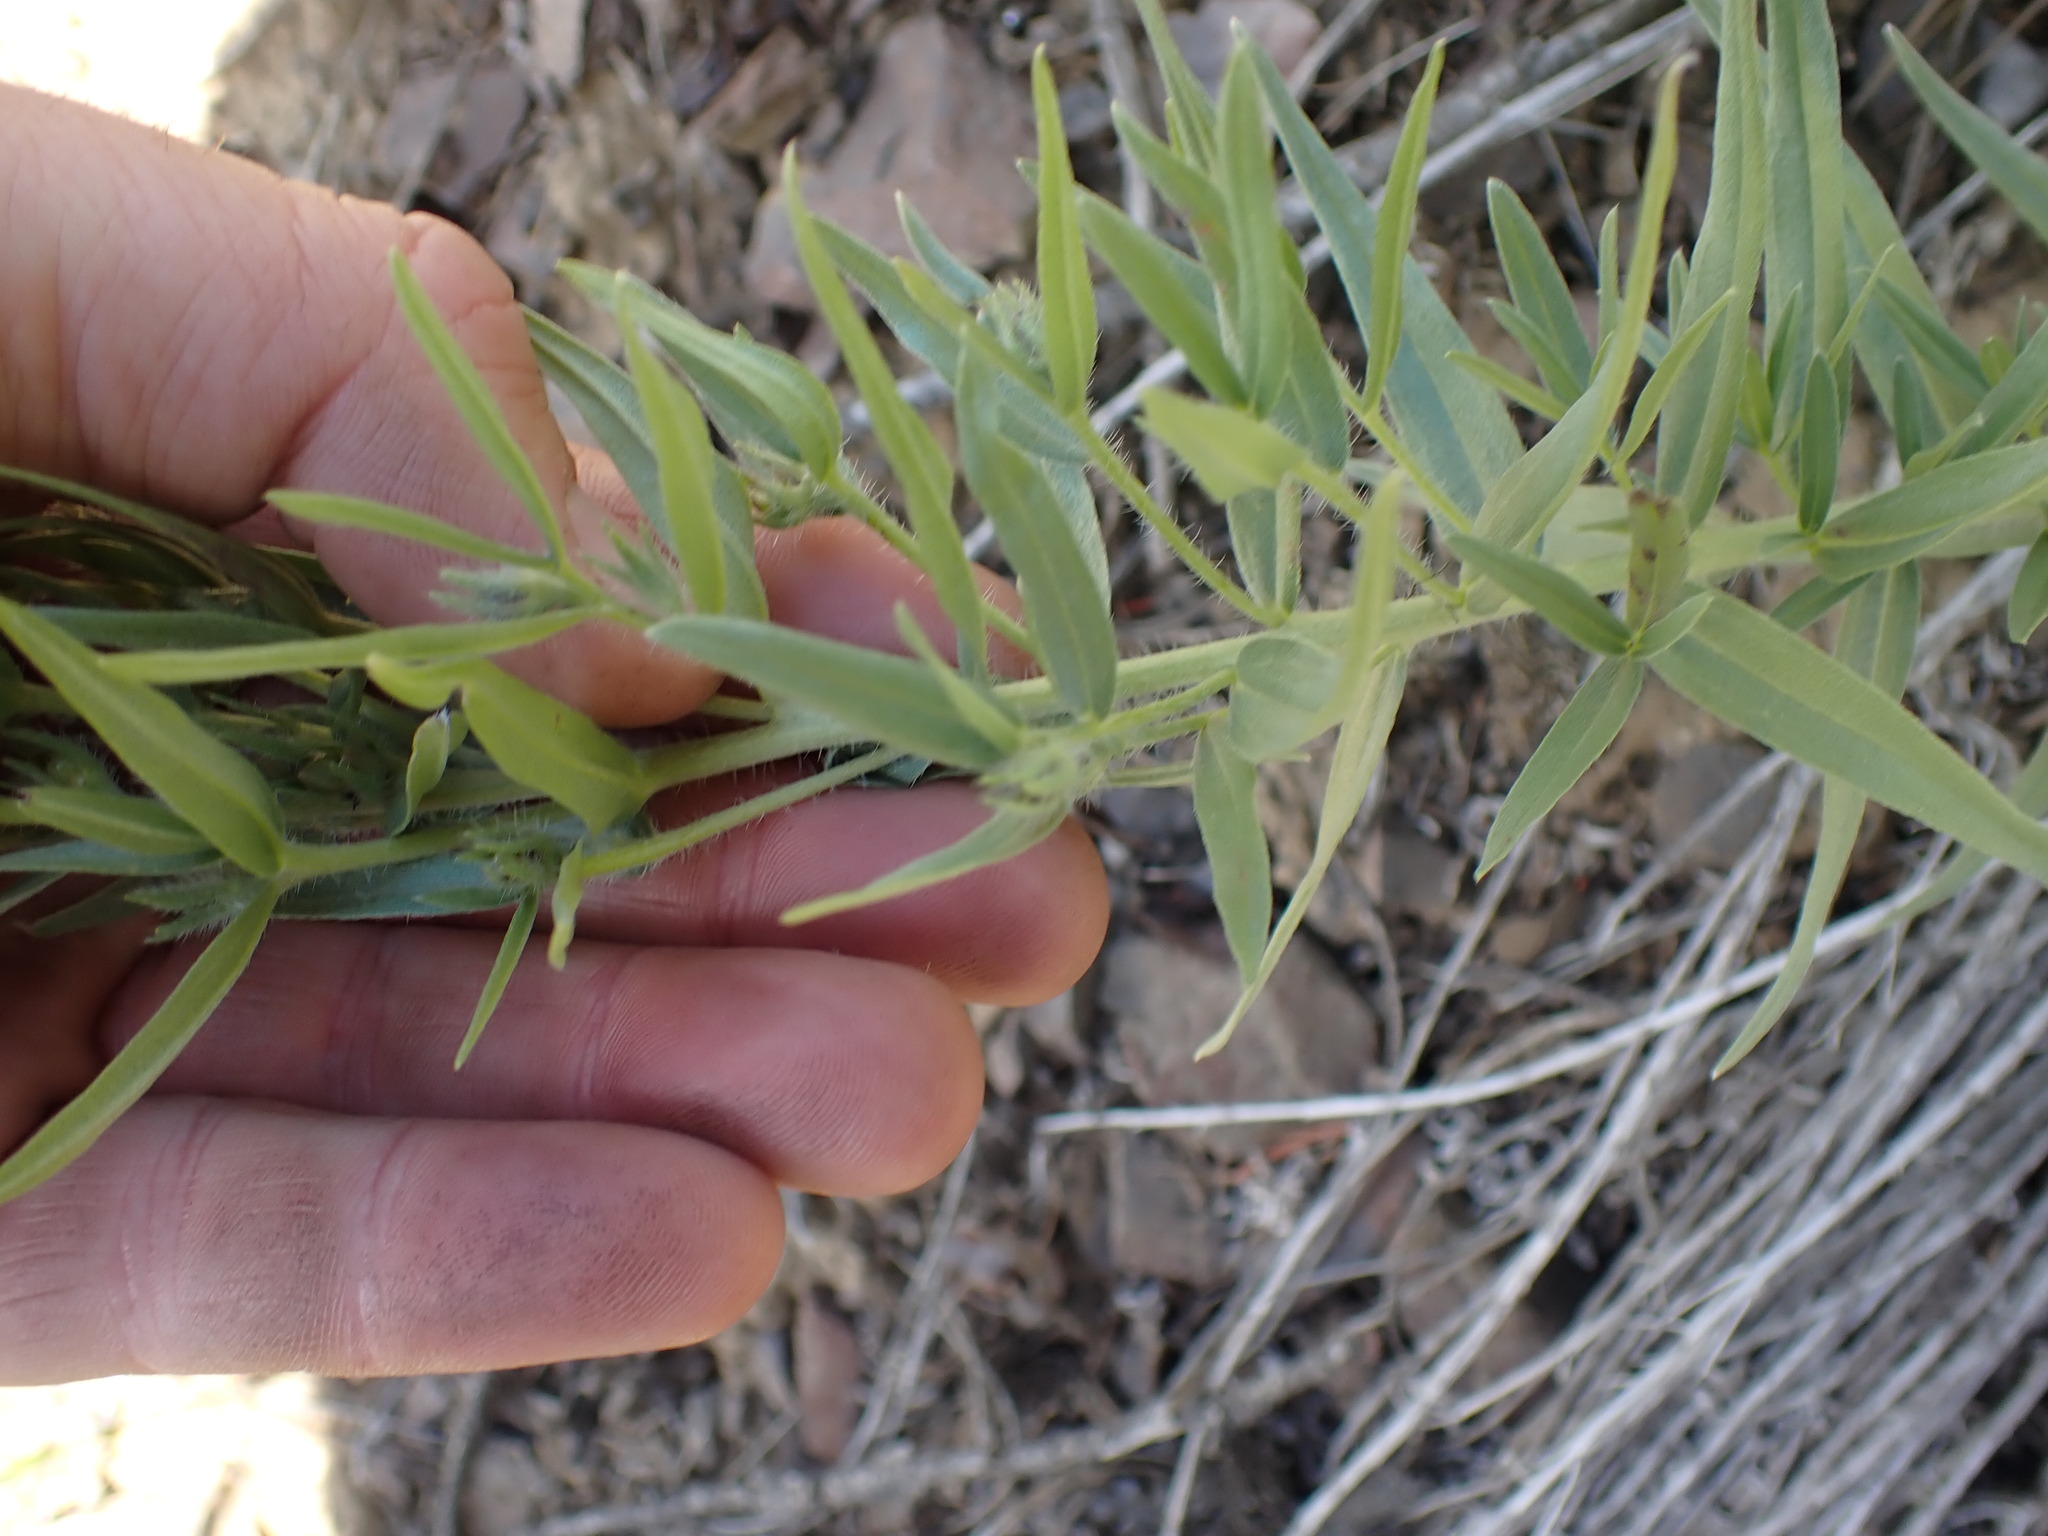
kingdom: Plantae
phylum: Tracheophyta
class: Magnoliopsida
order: Boraginales
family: Boraginaceae
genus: Lithospermum
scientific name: Lithospermum ruderale
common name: Western gromwell
